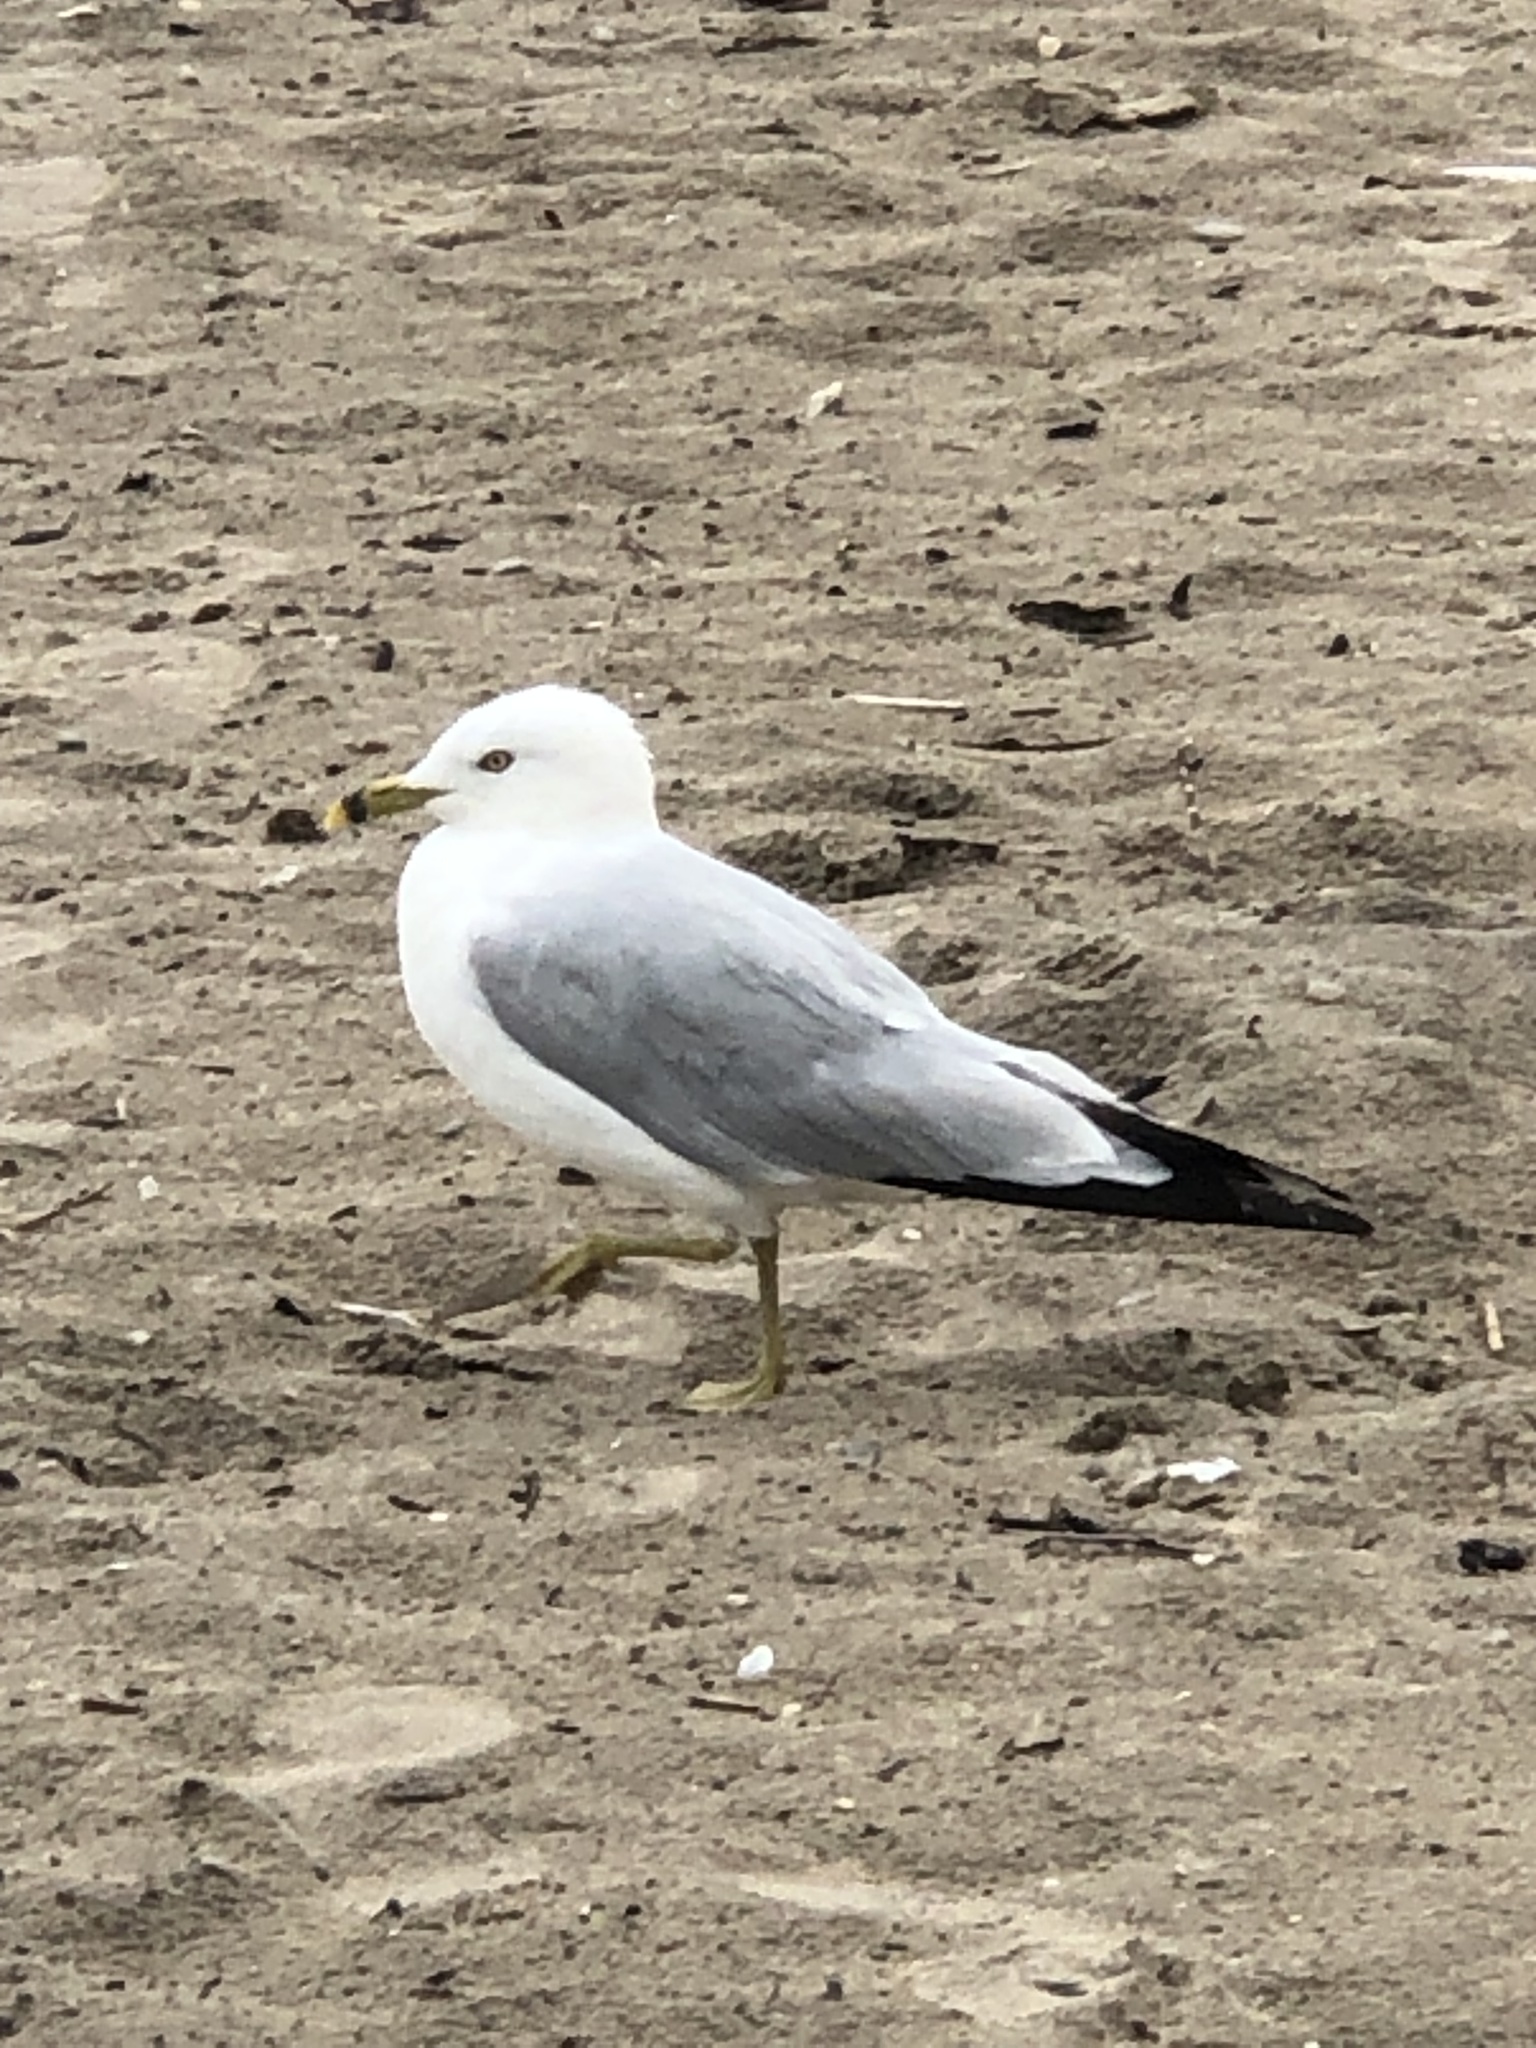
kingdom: Animalia
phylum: Chordata
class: Aves
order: Charadriiformes
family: Laridae
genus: Larus
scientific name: Larus delawarensis
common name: Ring-billed gull
